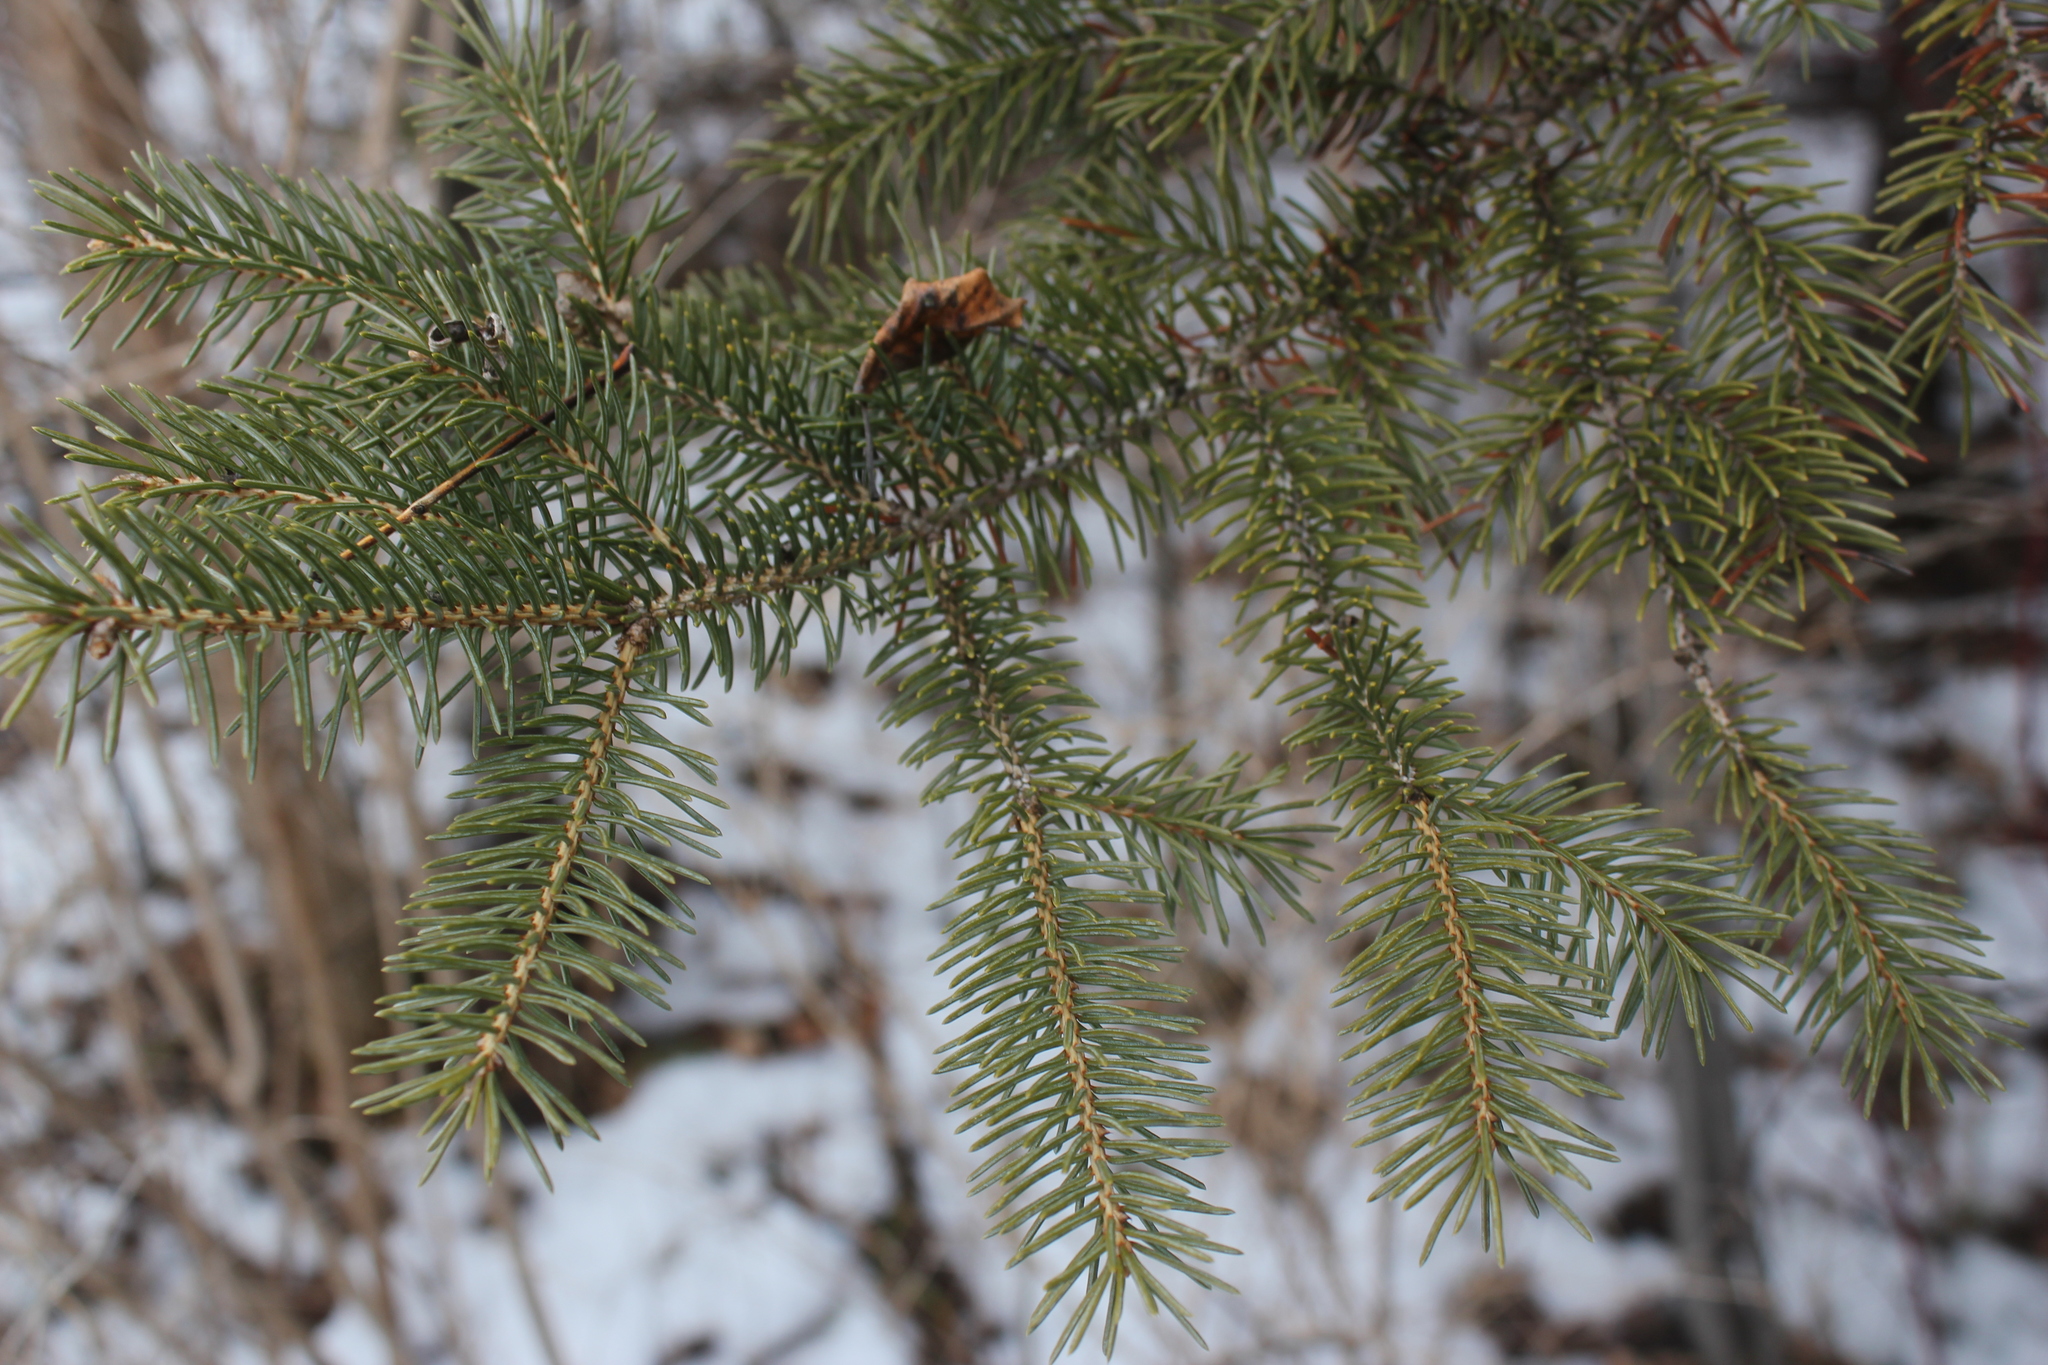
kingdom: Plantae
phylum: Tracheophyta
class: Pinopsida
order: Pinales
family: Pinaceae
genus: Picea
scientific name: Picea glauca
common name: White spruce
